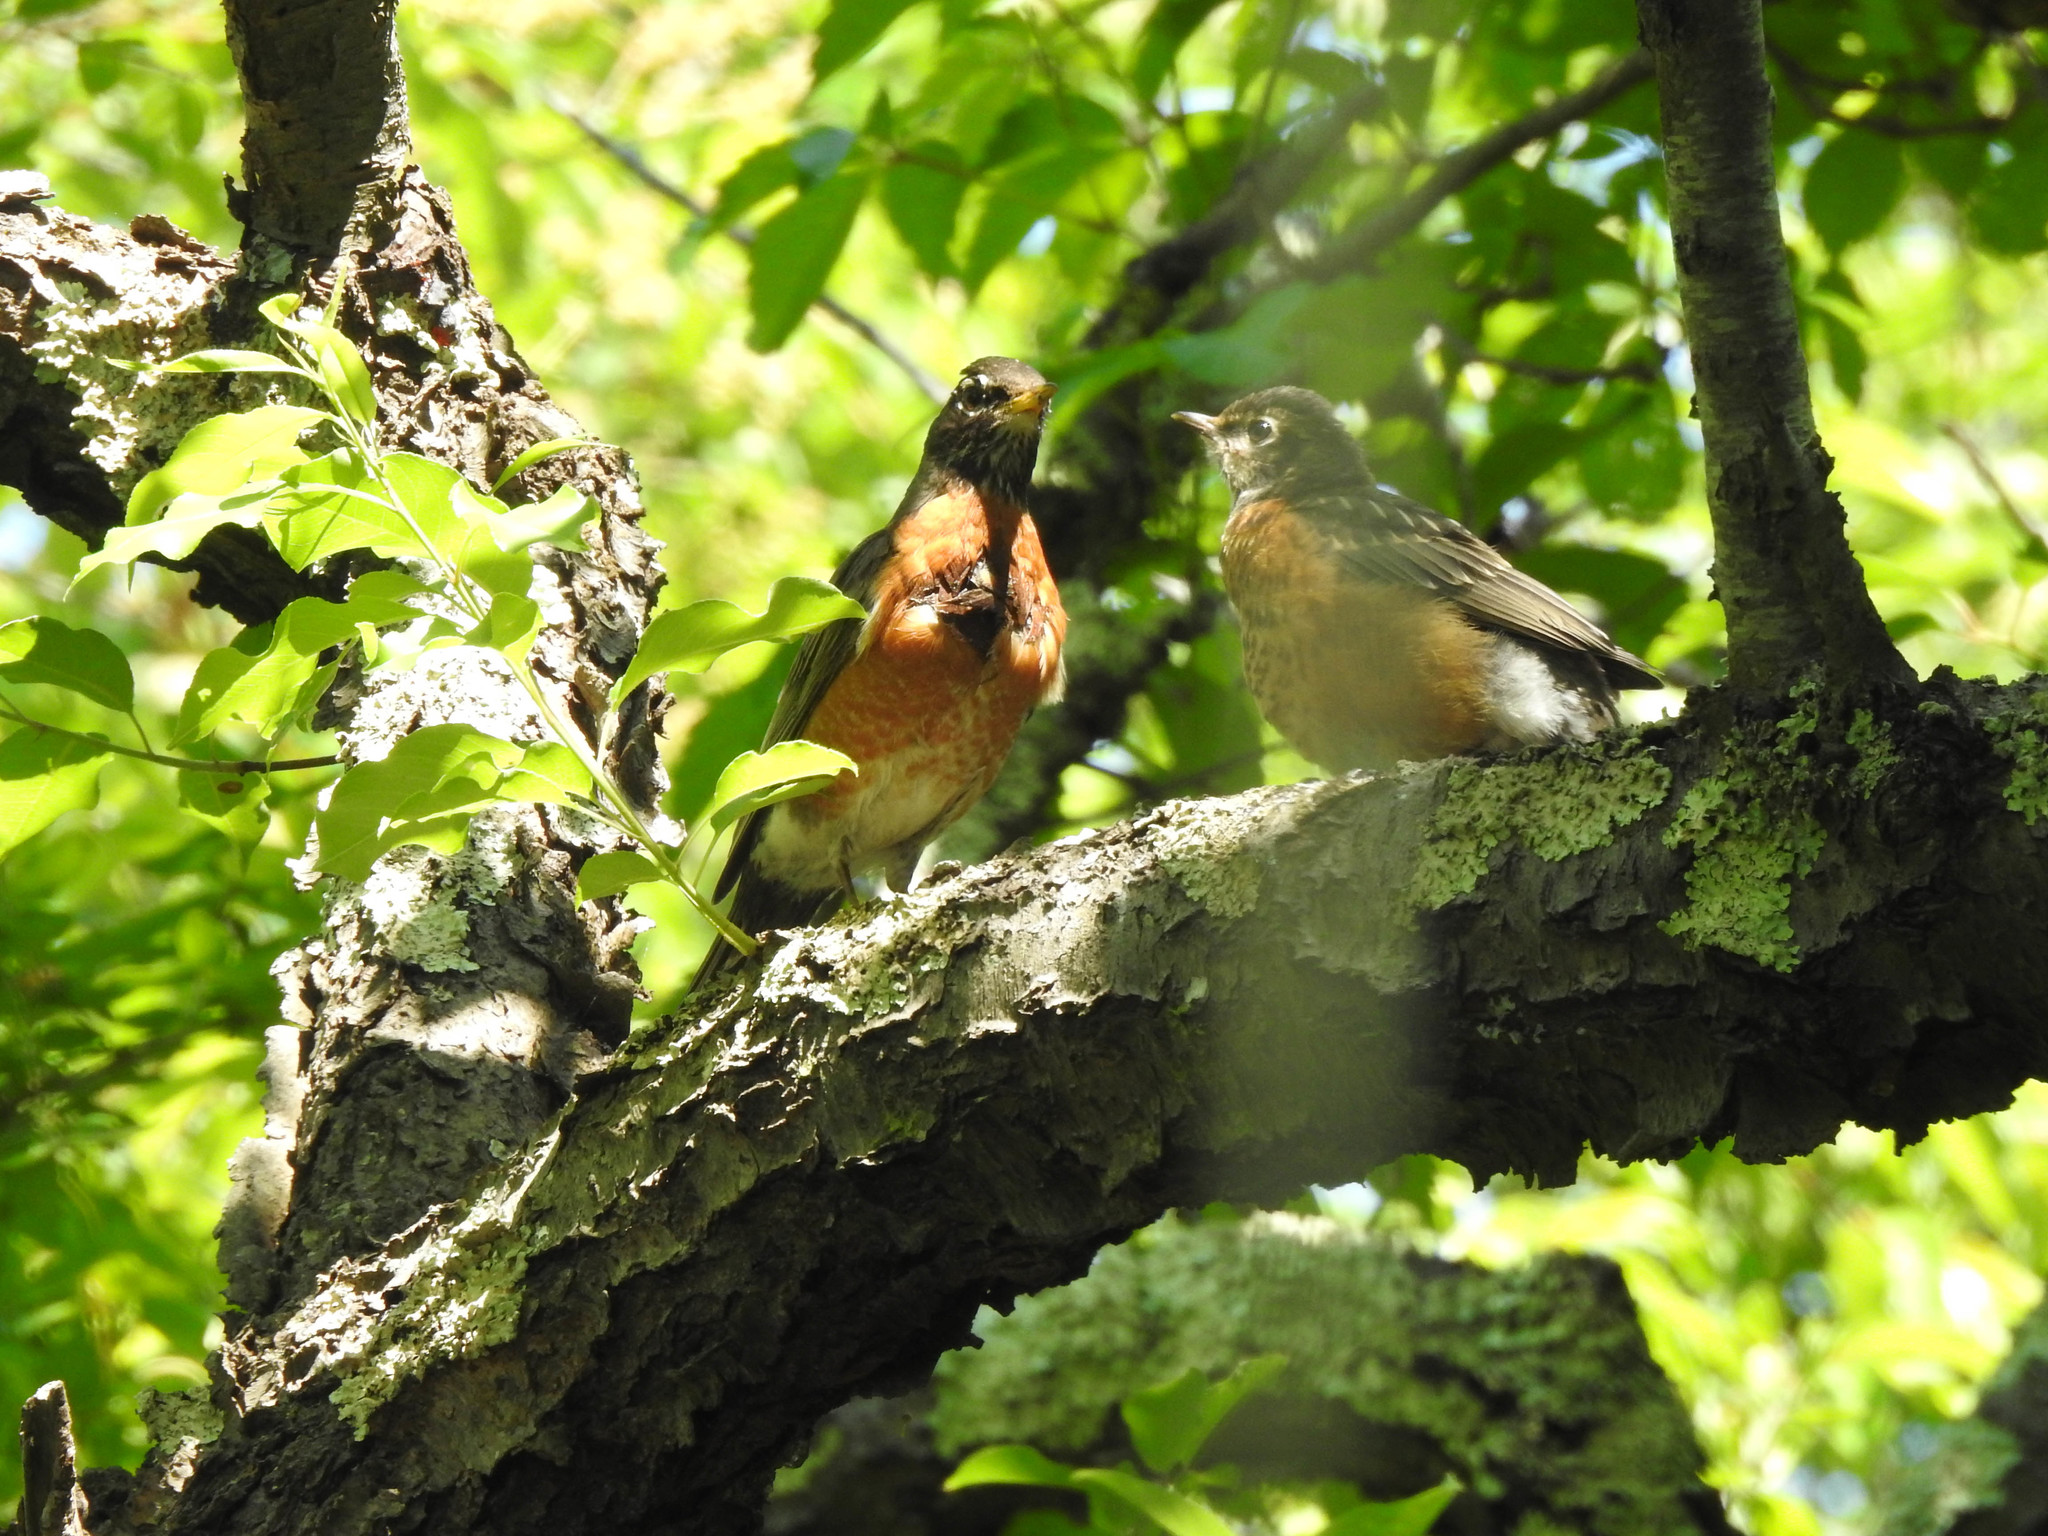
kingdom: Animalia
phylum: Chordata
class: Aves
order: Passeriformes
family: Turdidae
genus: Turdus
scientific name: Turdus migratorius
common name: American robin
